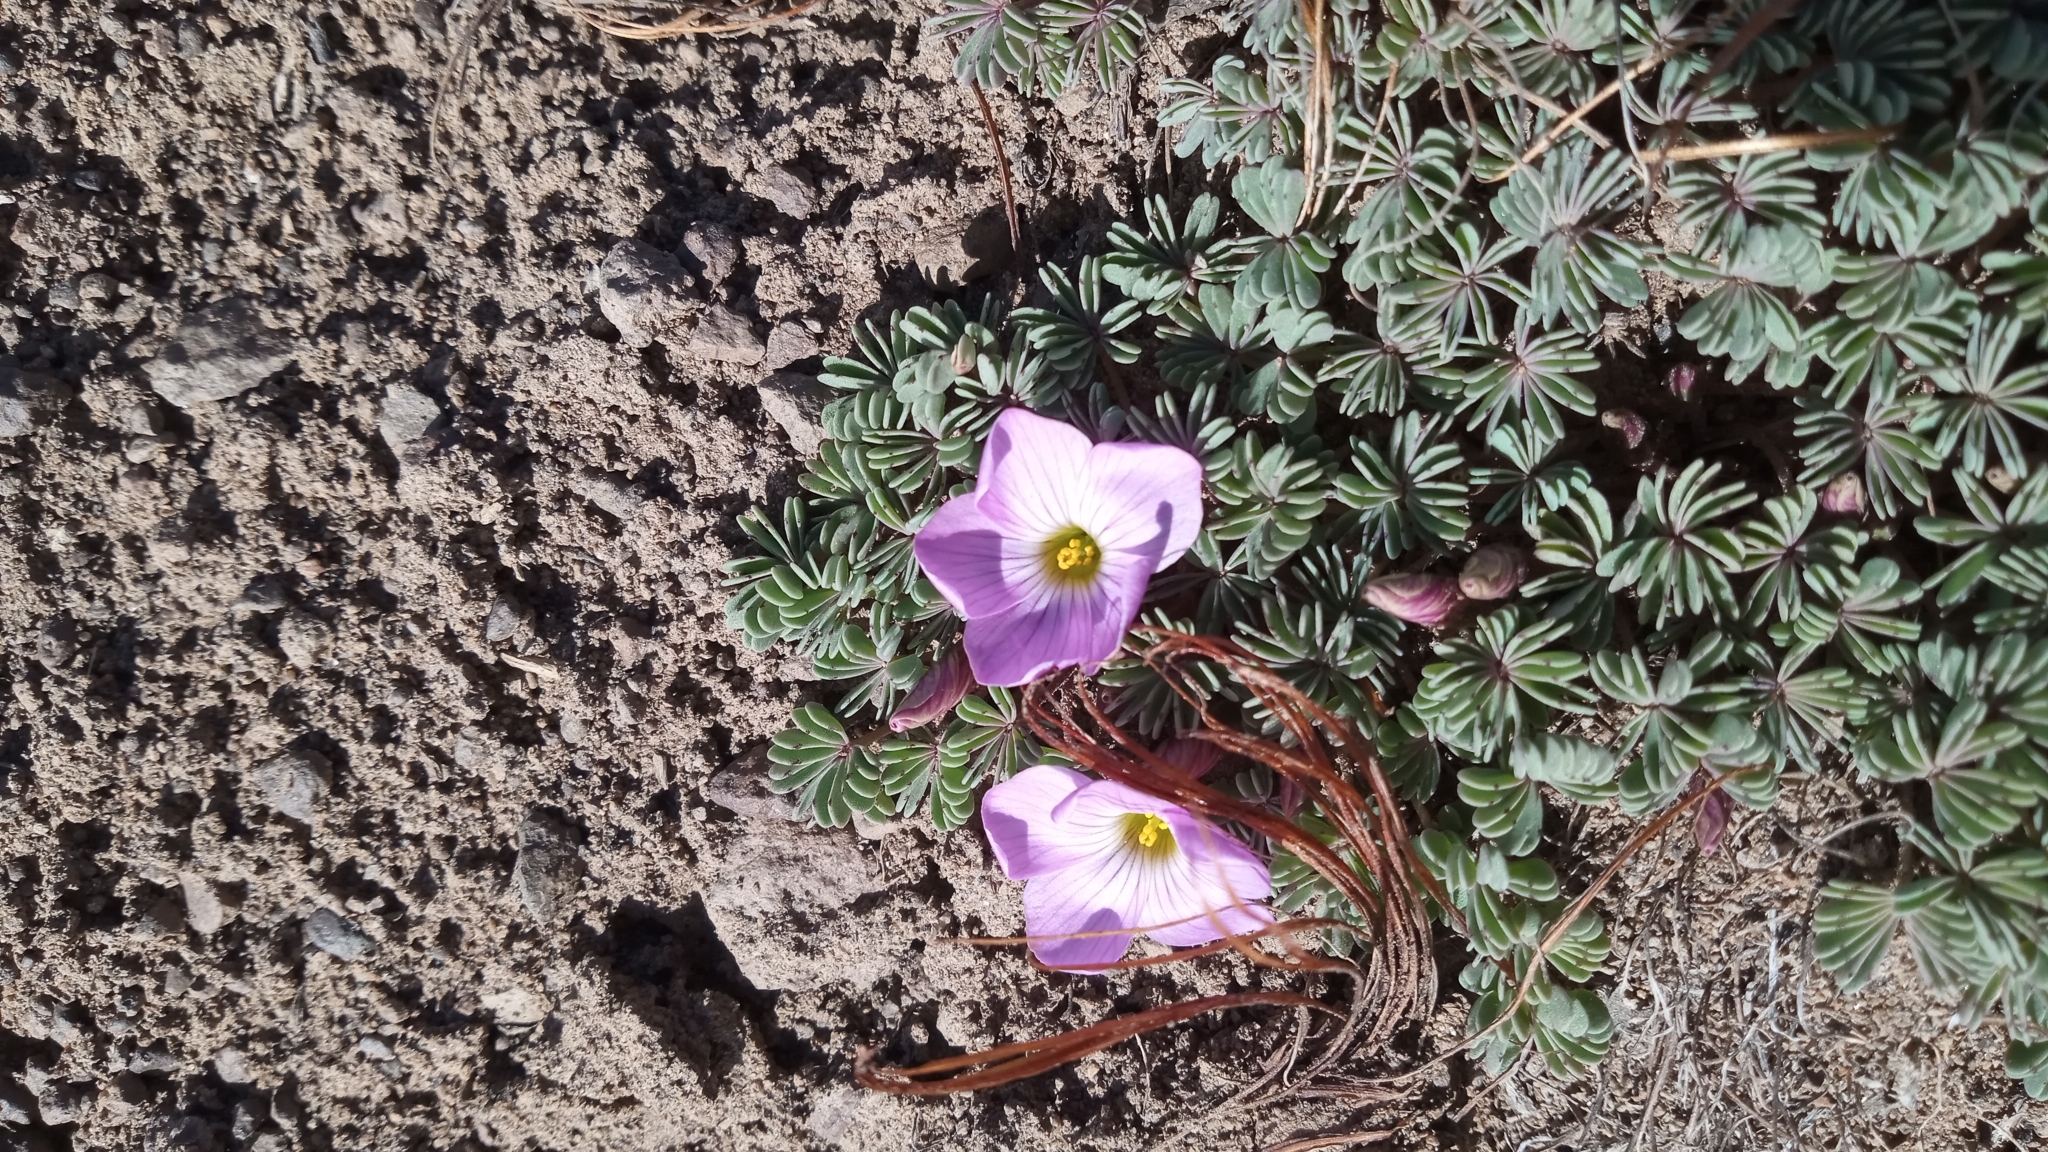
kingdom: Plantae
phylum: Tracheophyta
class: Magnoliopsida
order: Oxalidales
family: Oxalidaceae
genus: Oxalis
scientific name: Oxalis adenophylla
